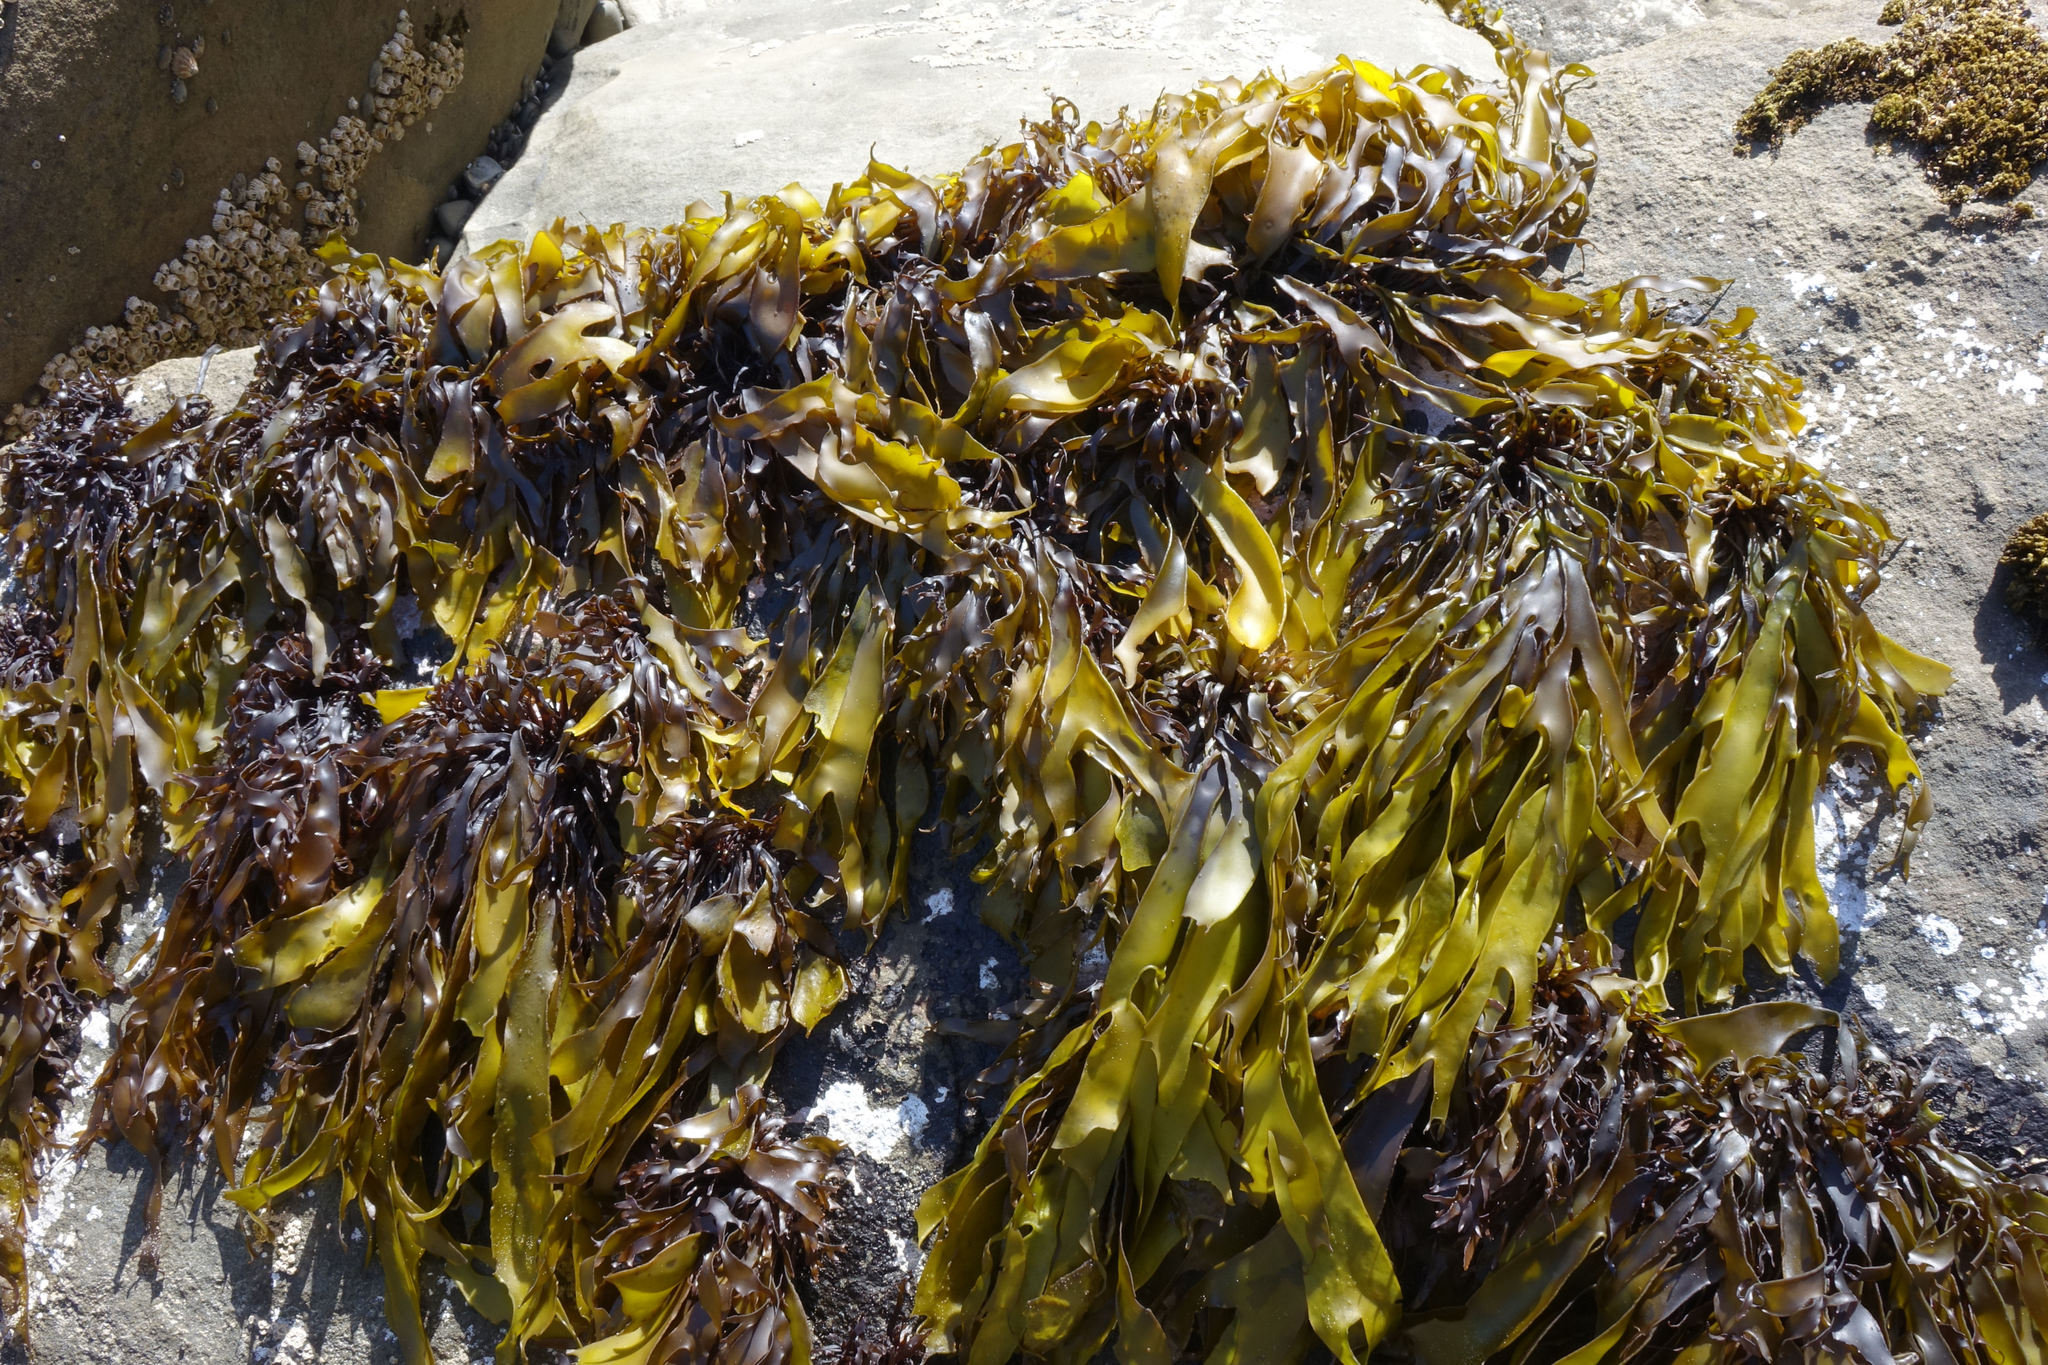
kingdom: Plantae
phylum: Rhodophyta
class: Florideophyceae
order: Halymeniales
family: Halymeniaceae
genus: Pachymenia
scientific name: Pachymenia dichotoma
